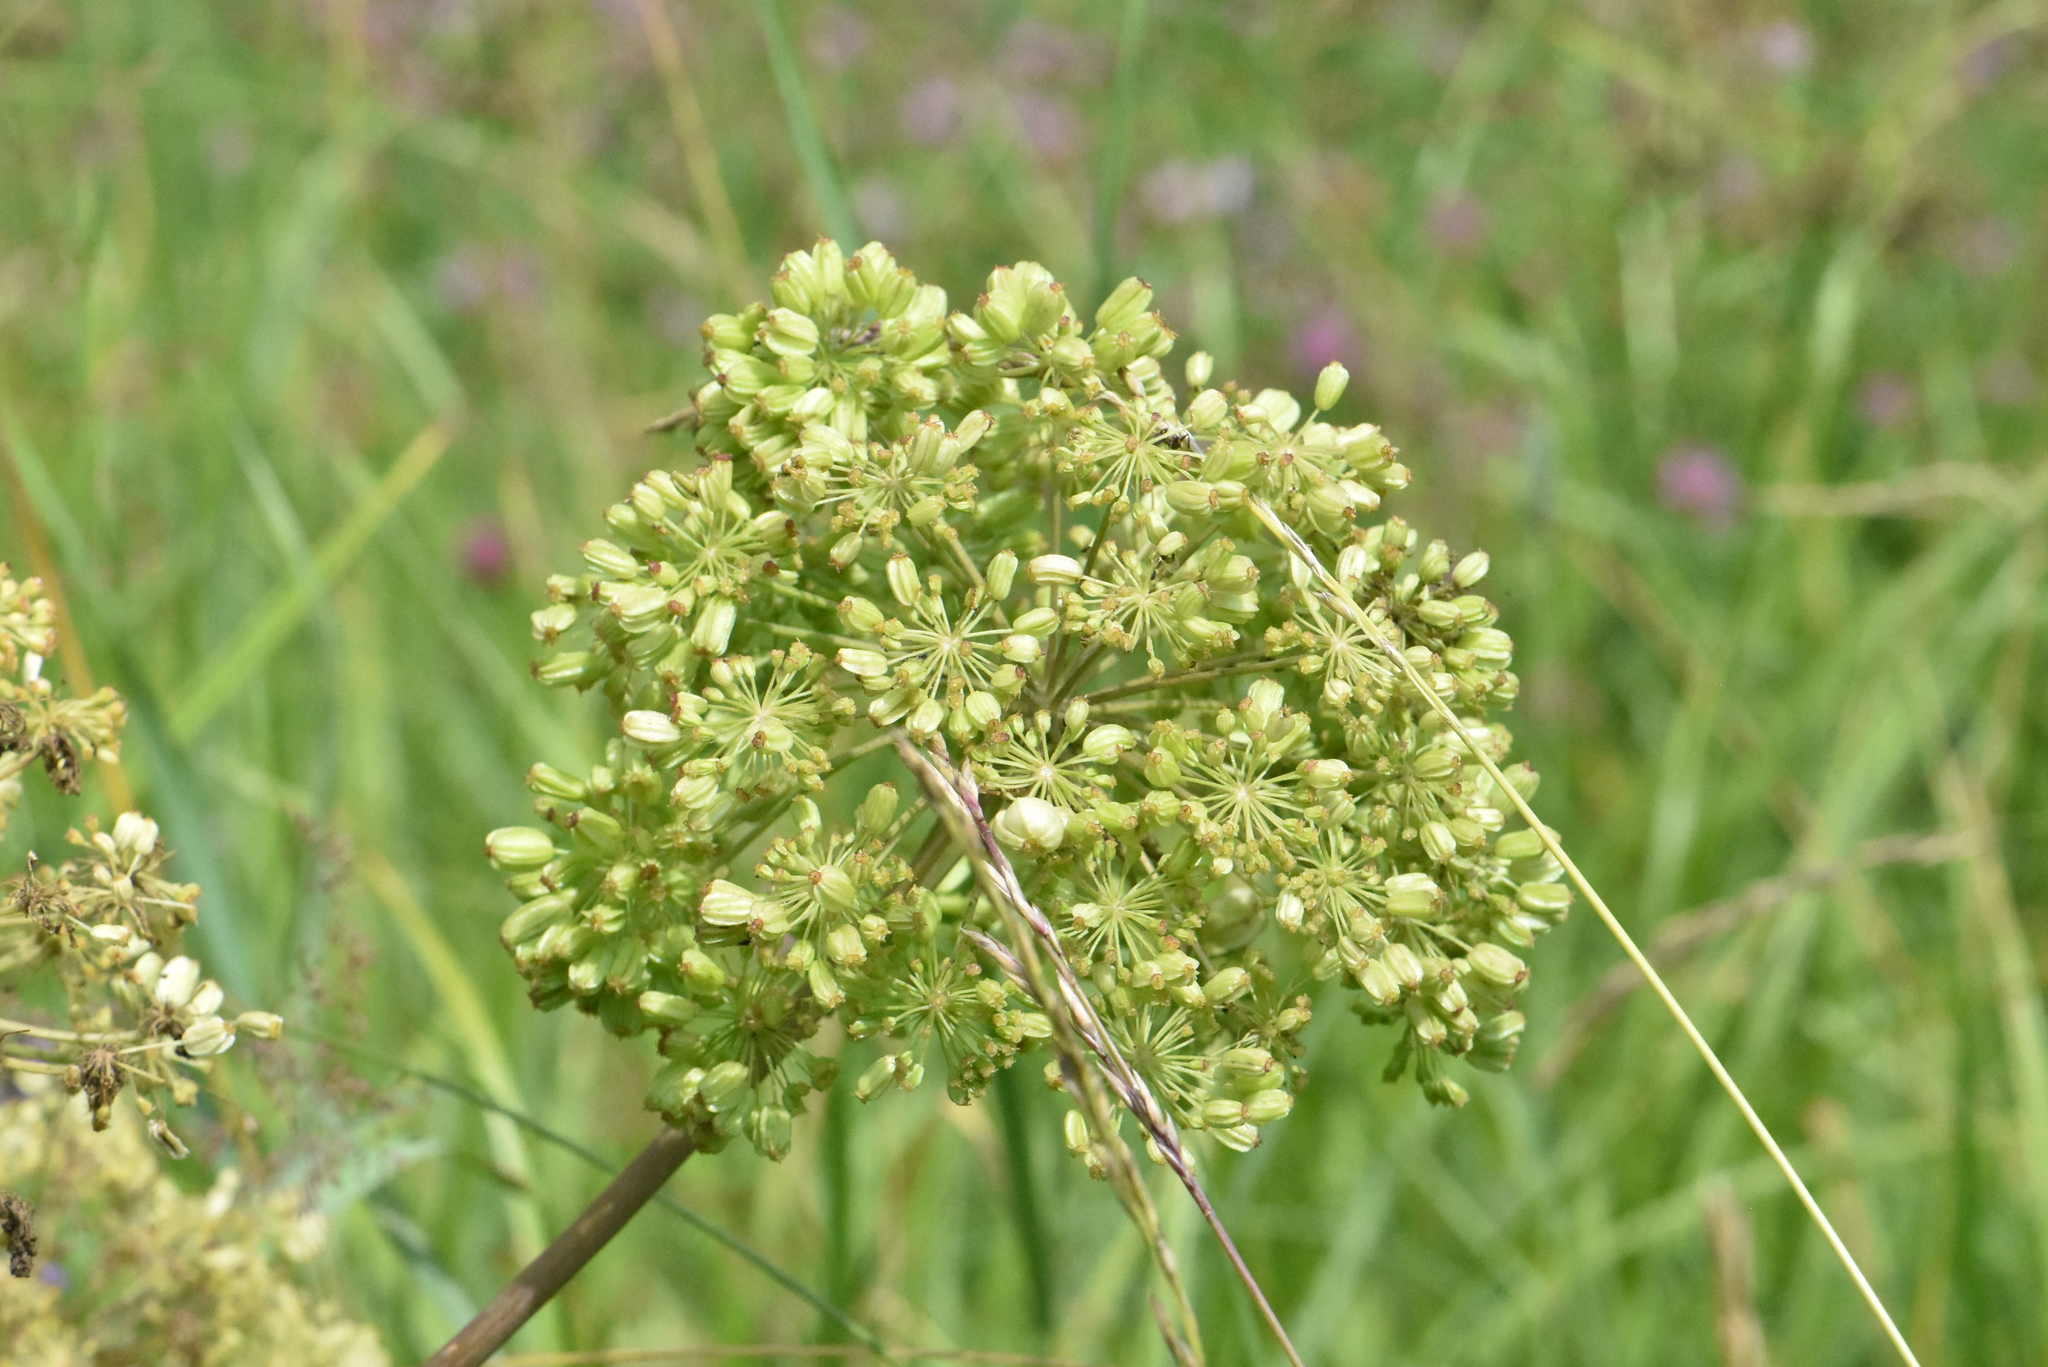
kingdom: Plantae
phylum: Tracheophyta
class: Magnoliopsida
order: Apiales
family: Apiaceae
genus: Angelica
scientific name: Angelica decurrens
